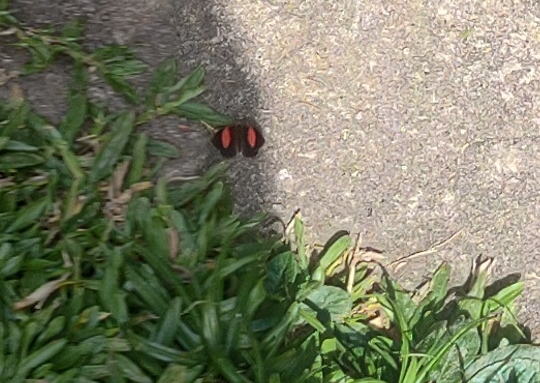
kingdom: Animalia
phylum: Arthropoda
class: Insecta
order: Lepidoptera
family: Nymphalidae
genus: Haematera
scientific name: Haematera pyrame
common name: Blind eighty-eight
